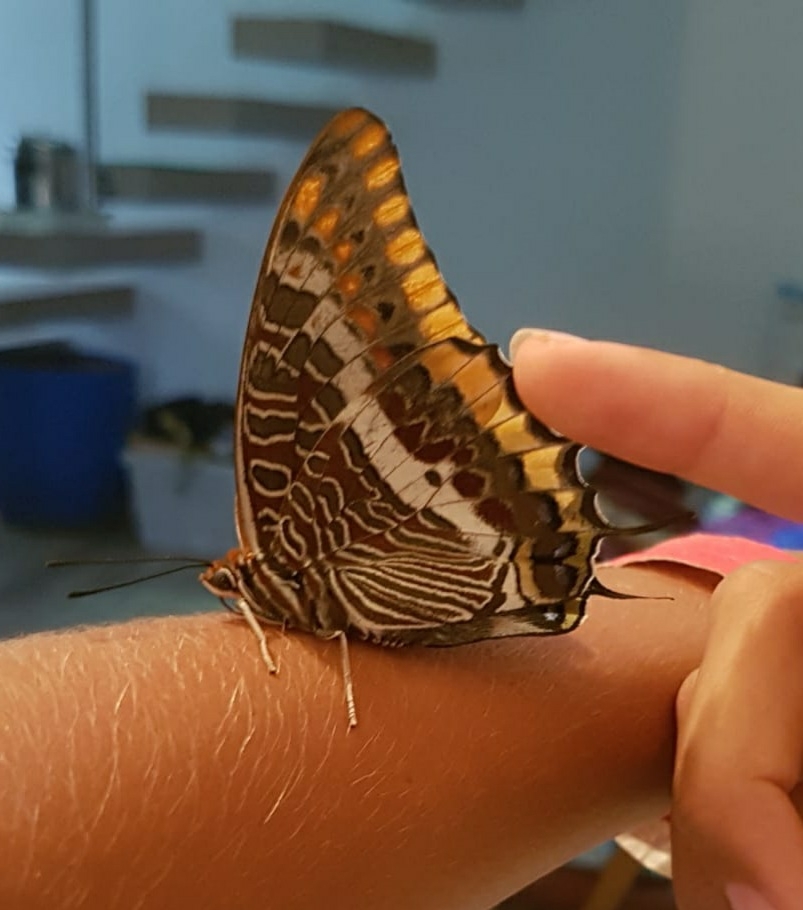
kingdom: Animalia
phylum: Arthropoda
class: Insecta
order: Lepidoptera
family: Nymphalidae
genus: Charaxes
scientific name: Charaxes jasius
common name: Two tailed pasha
